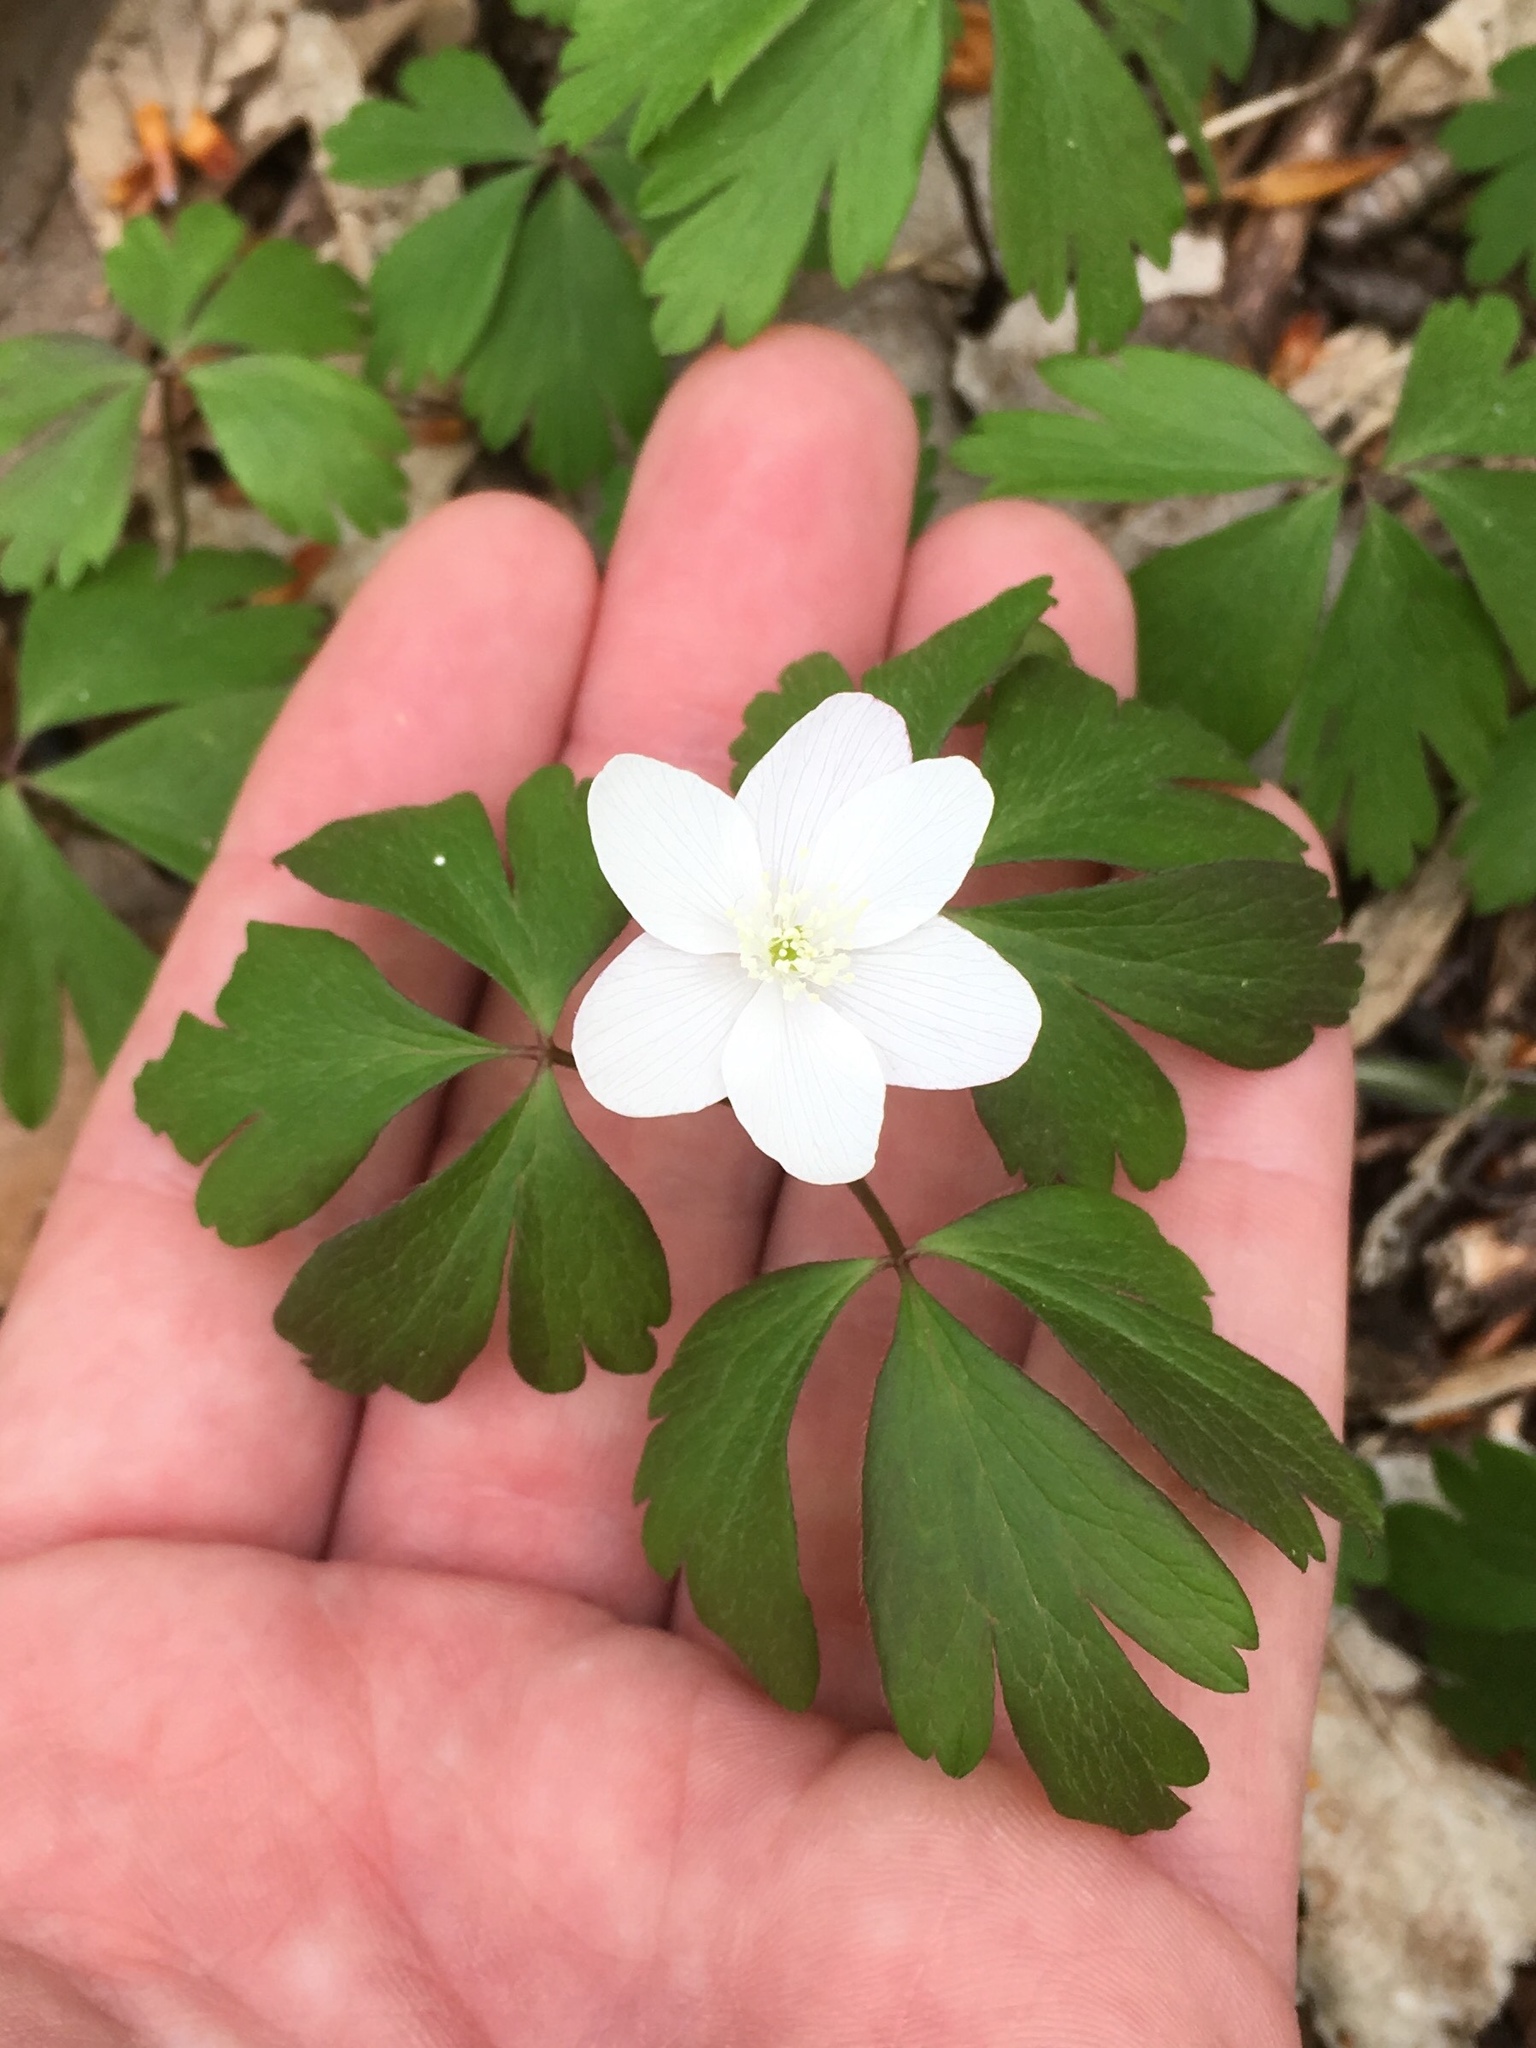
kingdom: Plantae
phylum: Tracheophyta
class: Magnoliopsida
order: Ranunculales
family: Ranunculaceae
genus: Anemone
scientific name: Anemone quinquefolia
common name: Wood anemone
